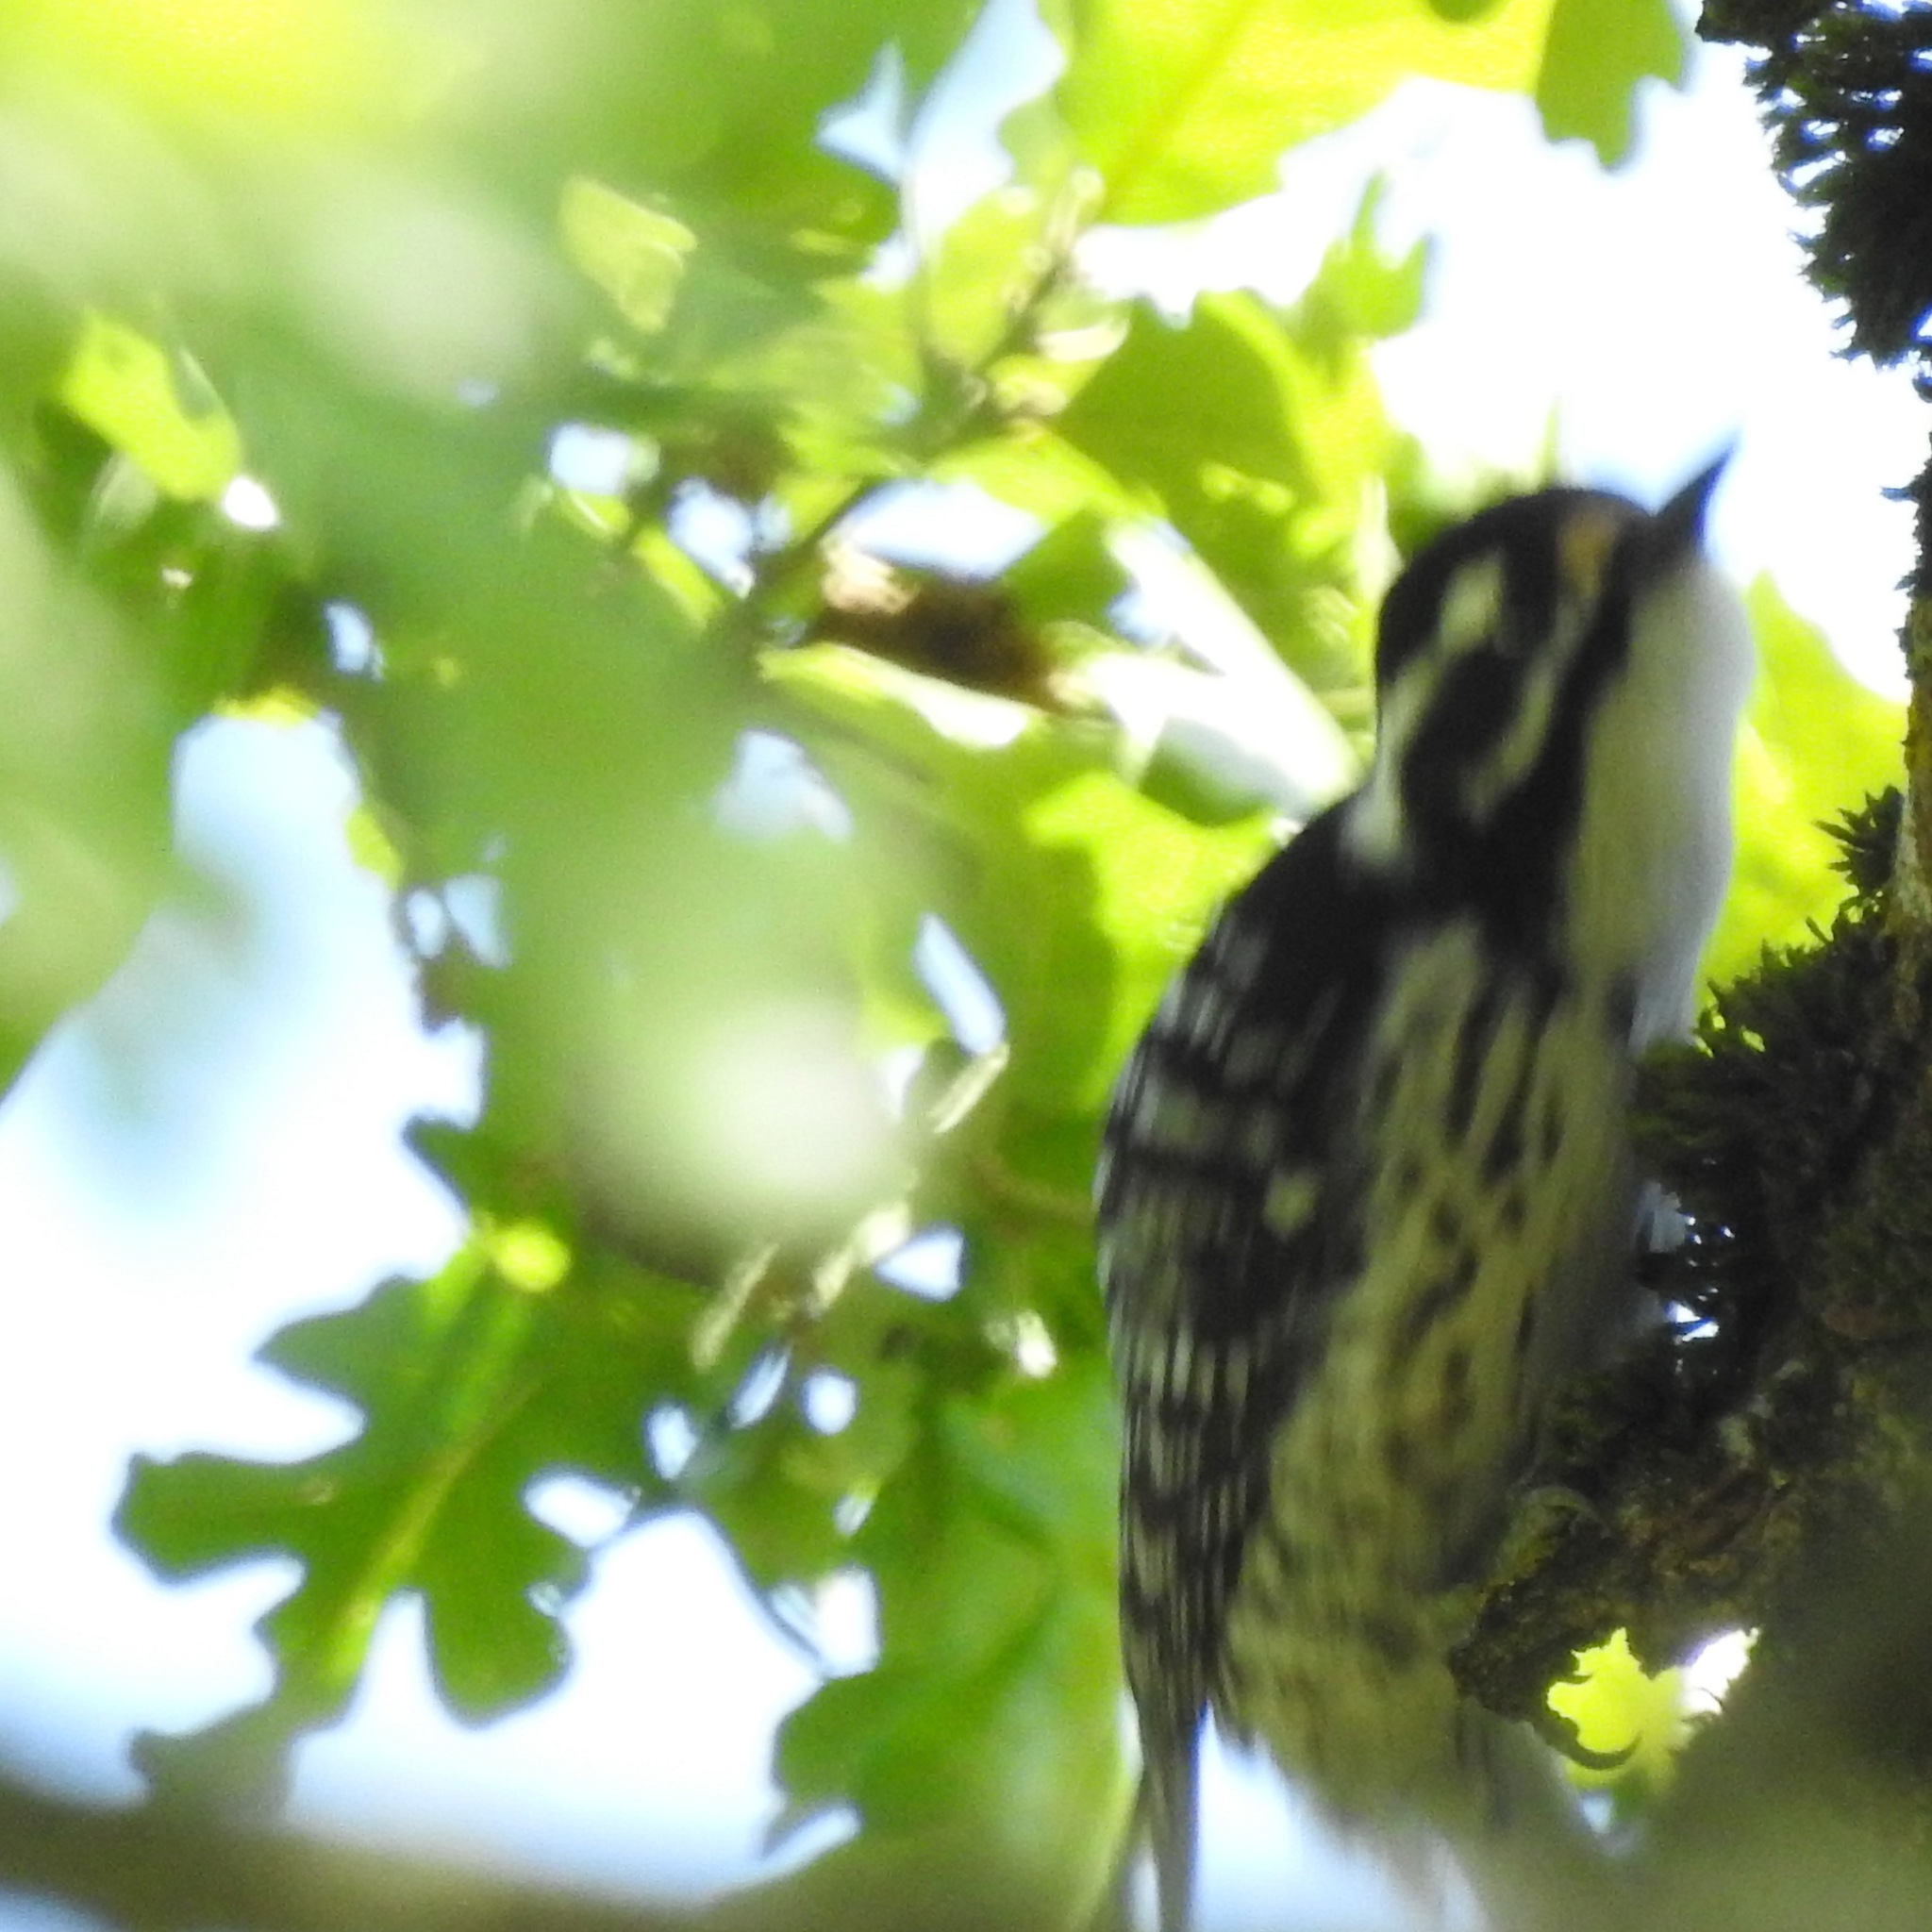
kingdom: Animalia
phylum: Chordata
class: Aves
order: Piciformes
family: Picidae
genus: Dryobates
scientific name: Dryobates nuttallii
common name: Nuttall's woodpecker
